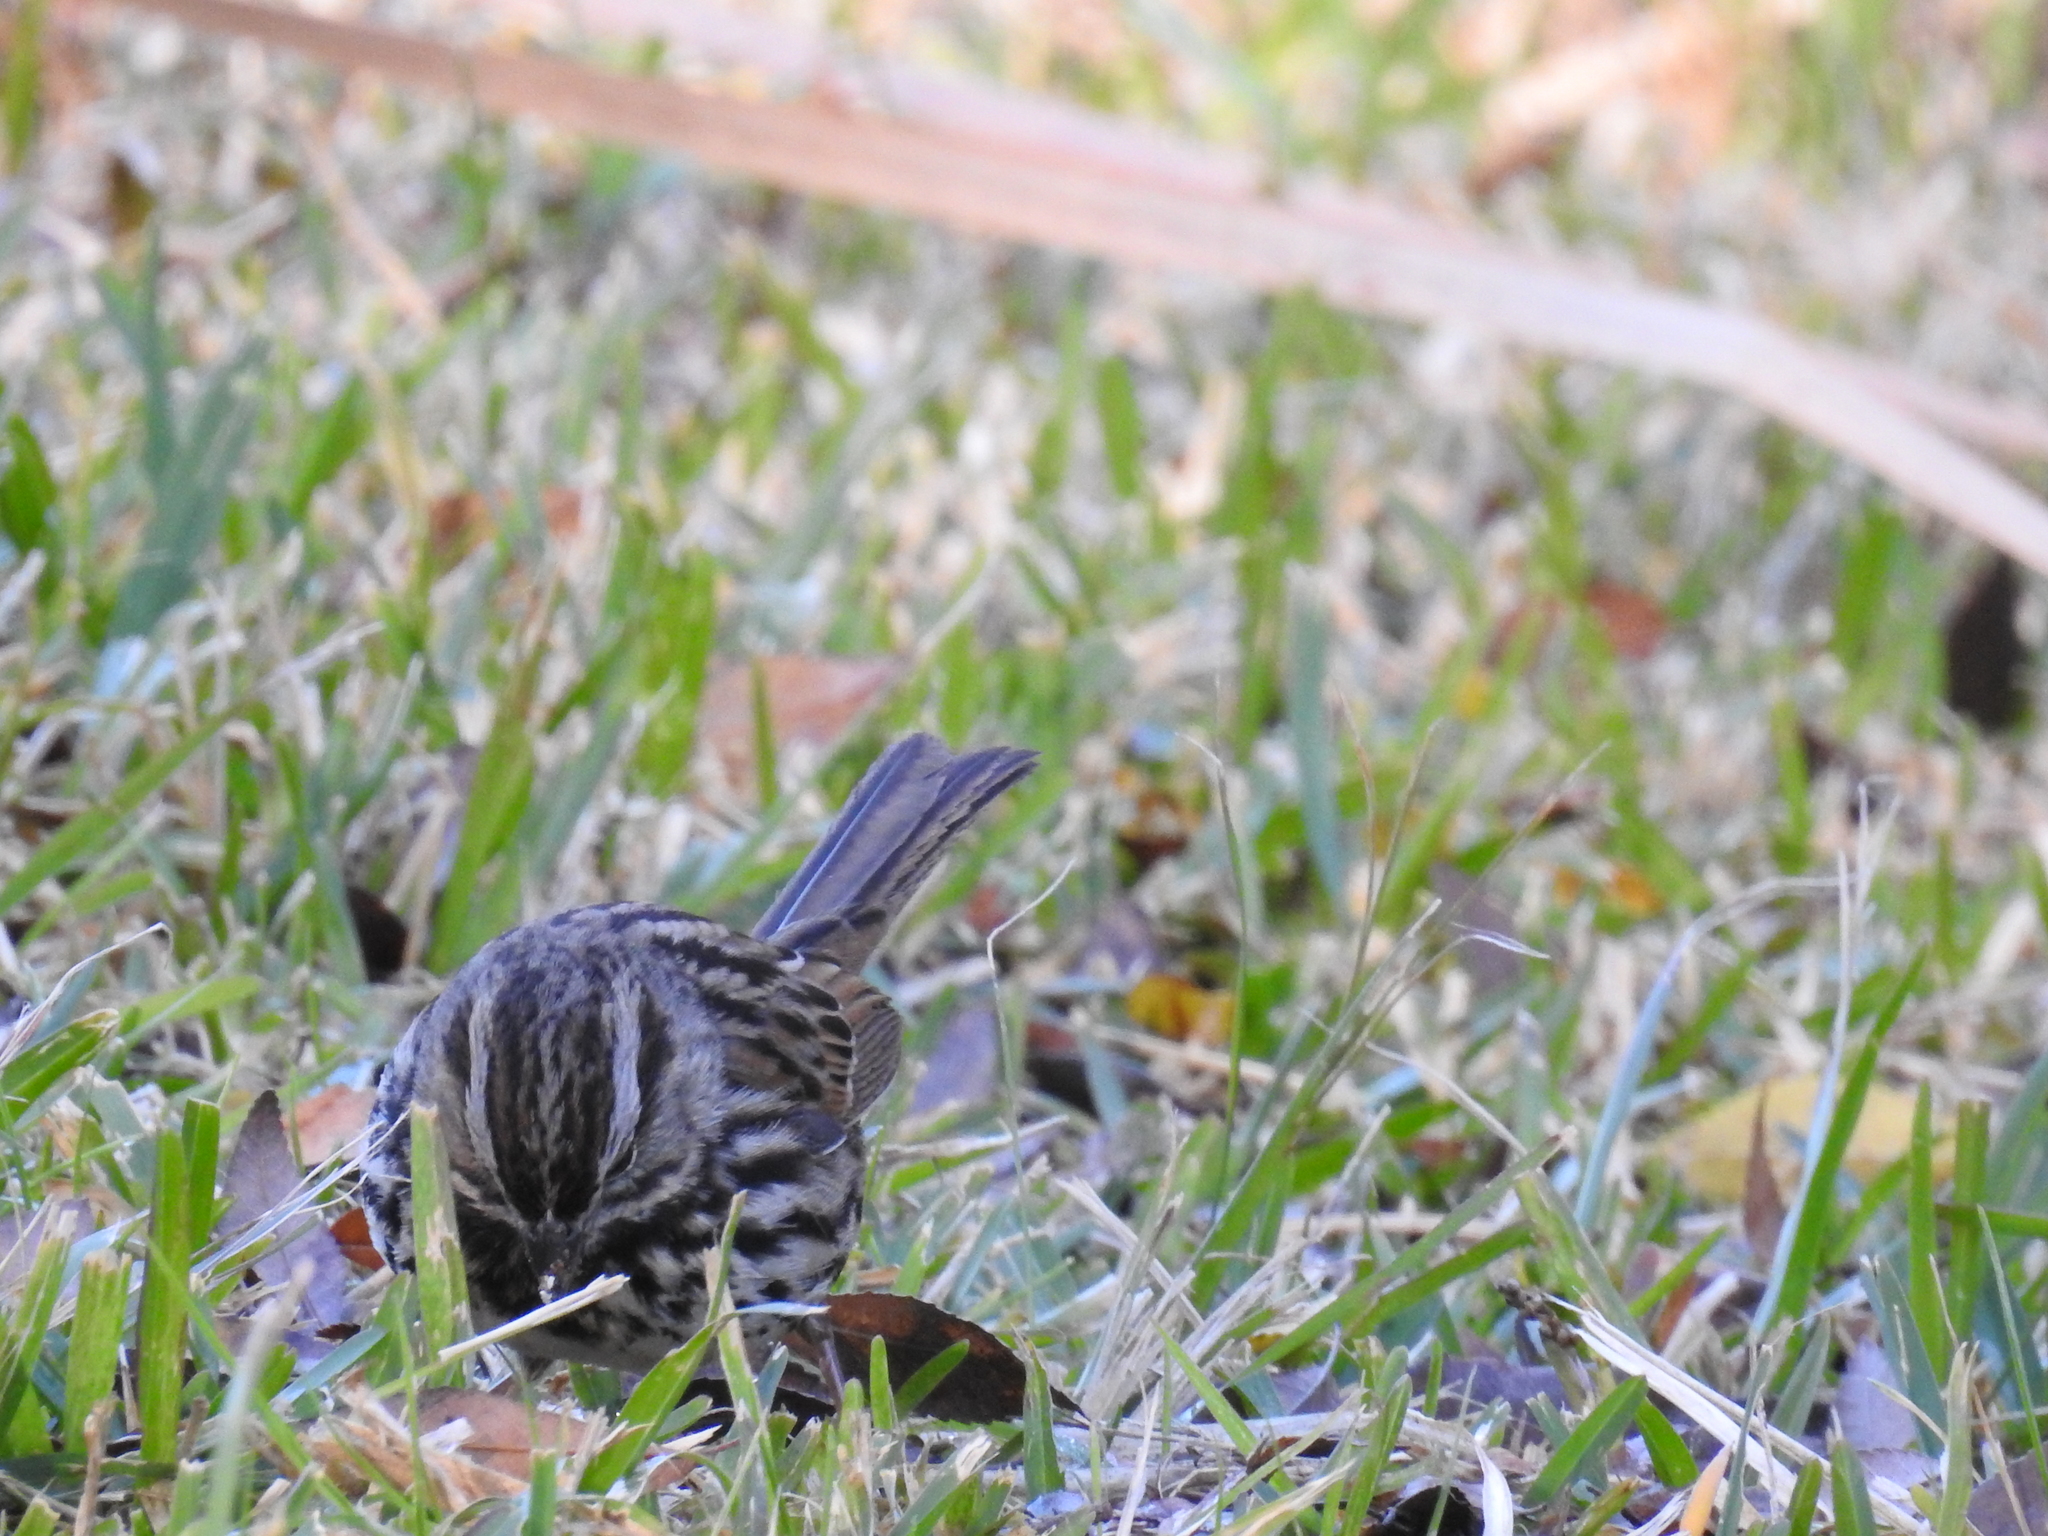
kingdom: Animalia
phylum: Chordata
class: Aves
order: Passeriformes
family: Passerellidae
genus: Melospiza
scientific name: Melospiza melodia
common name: Song sparrow
